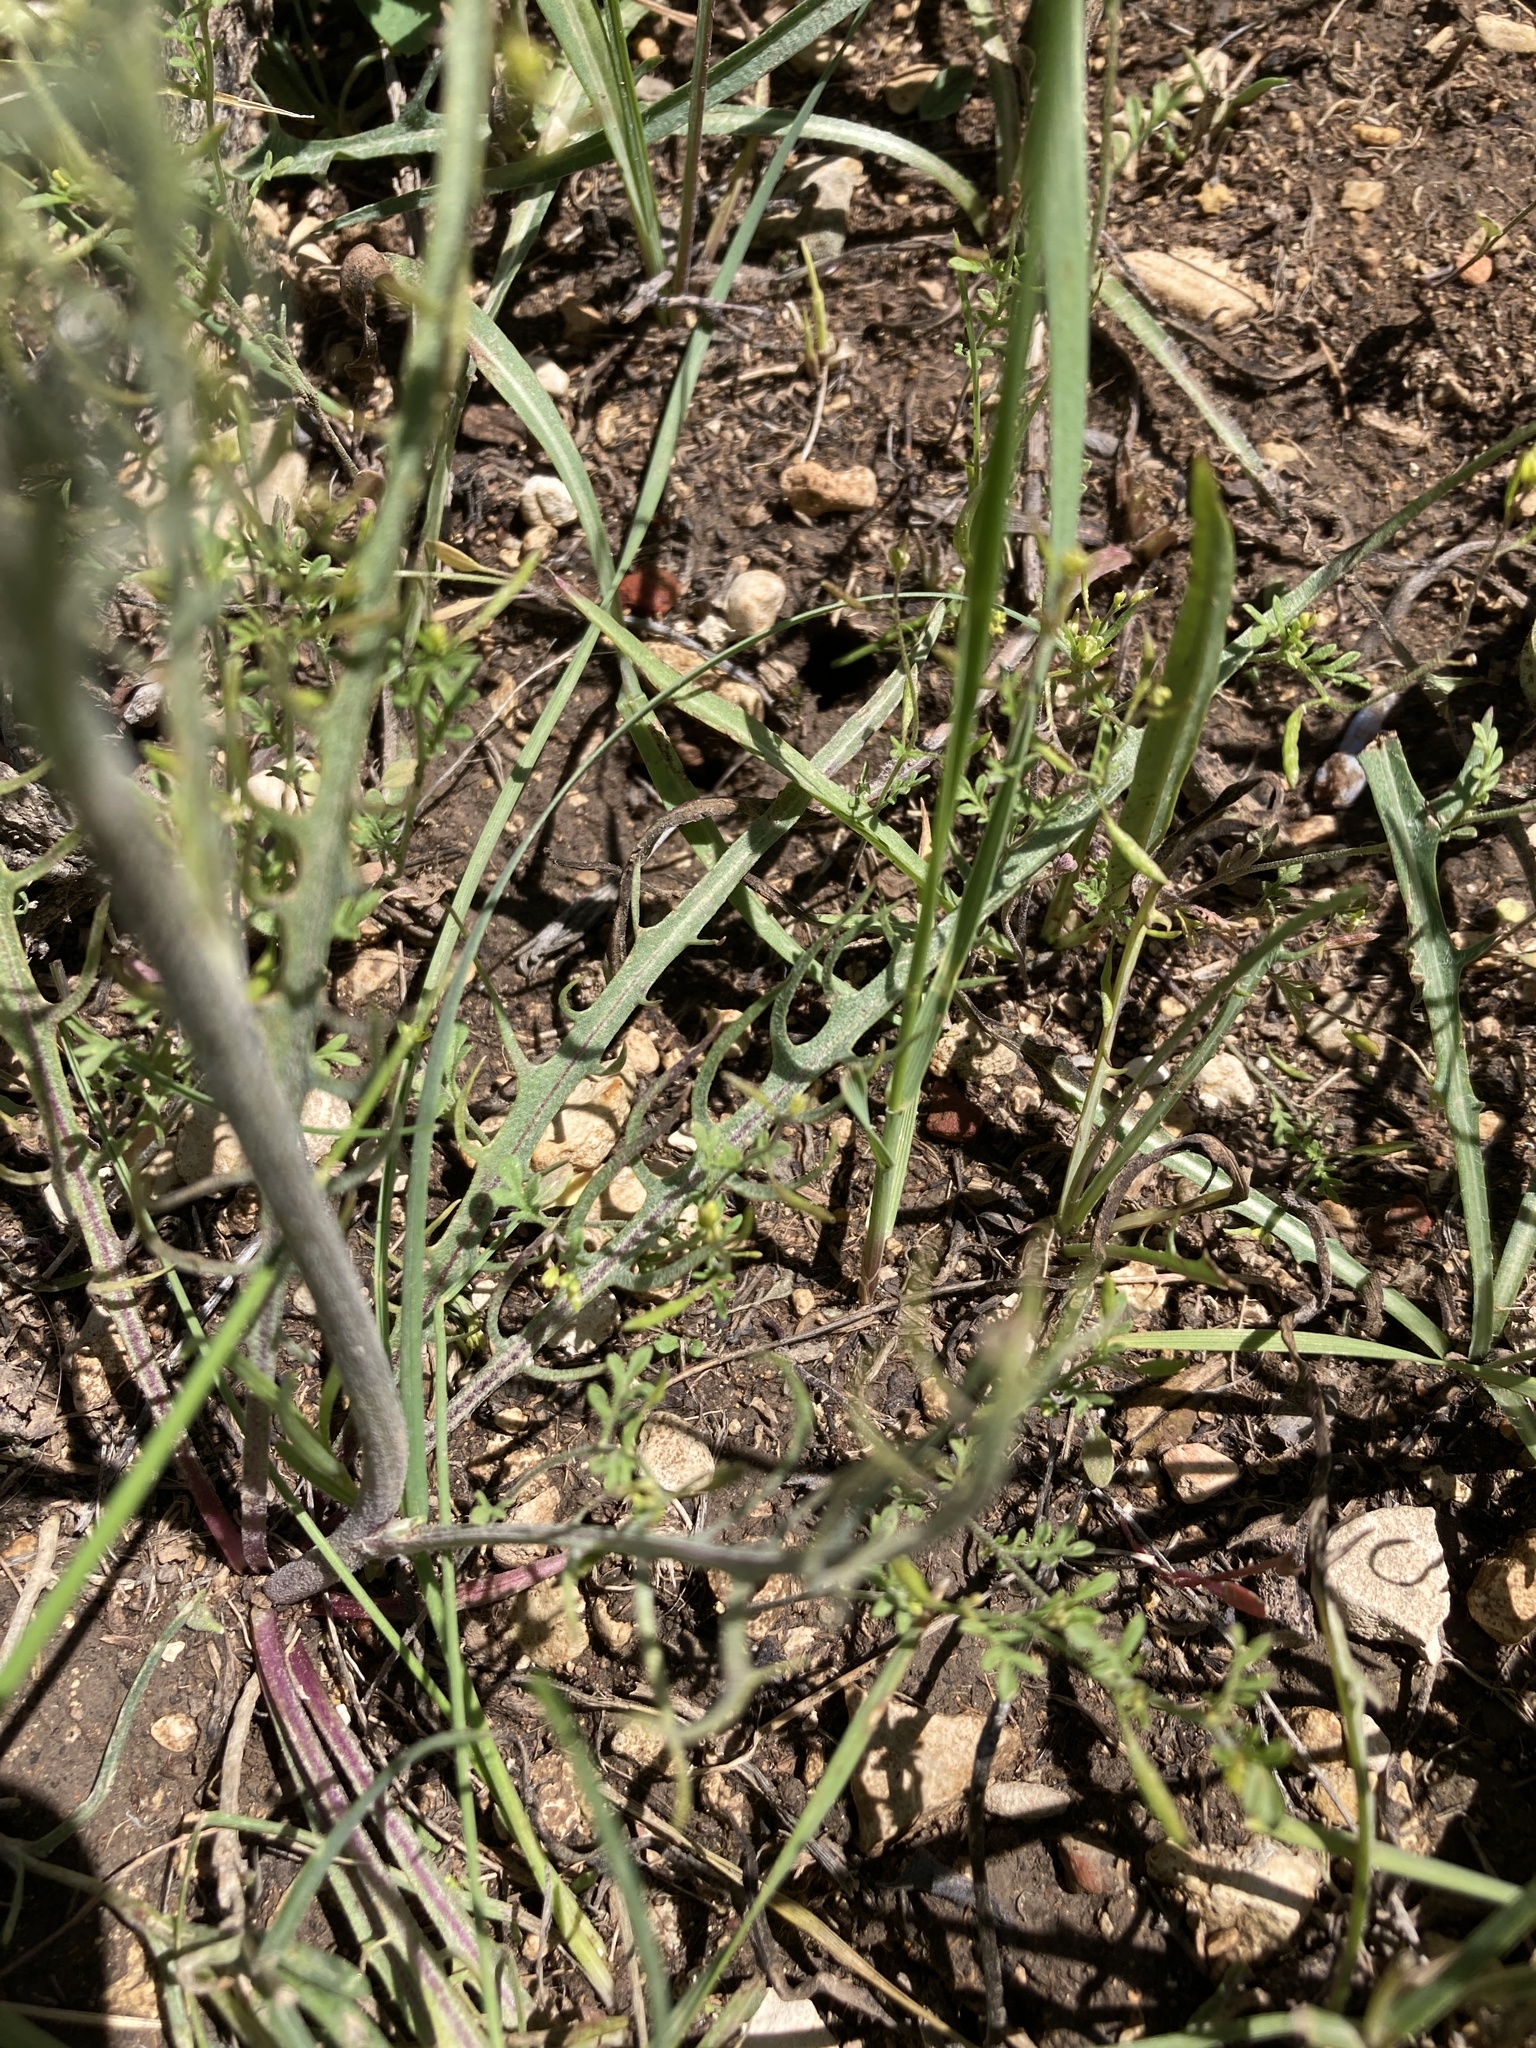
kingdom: Plantae
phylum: Tracheophyta
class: Magnoliopsida
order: Asterales
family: Asteraceae
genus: Crepis
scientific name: Crepis atribarba
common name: Dark hawk's-beard
